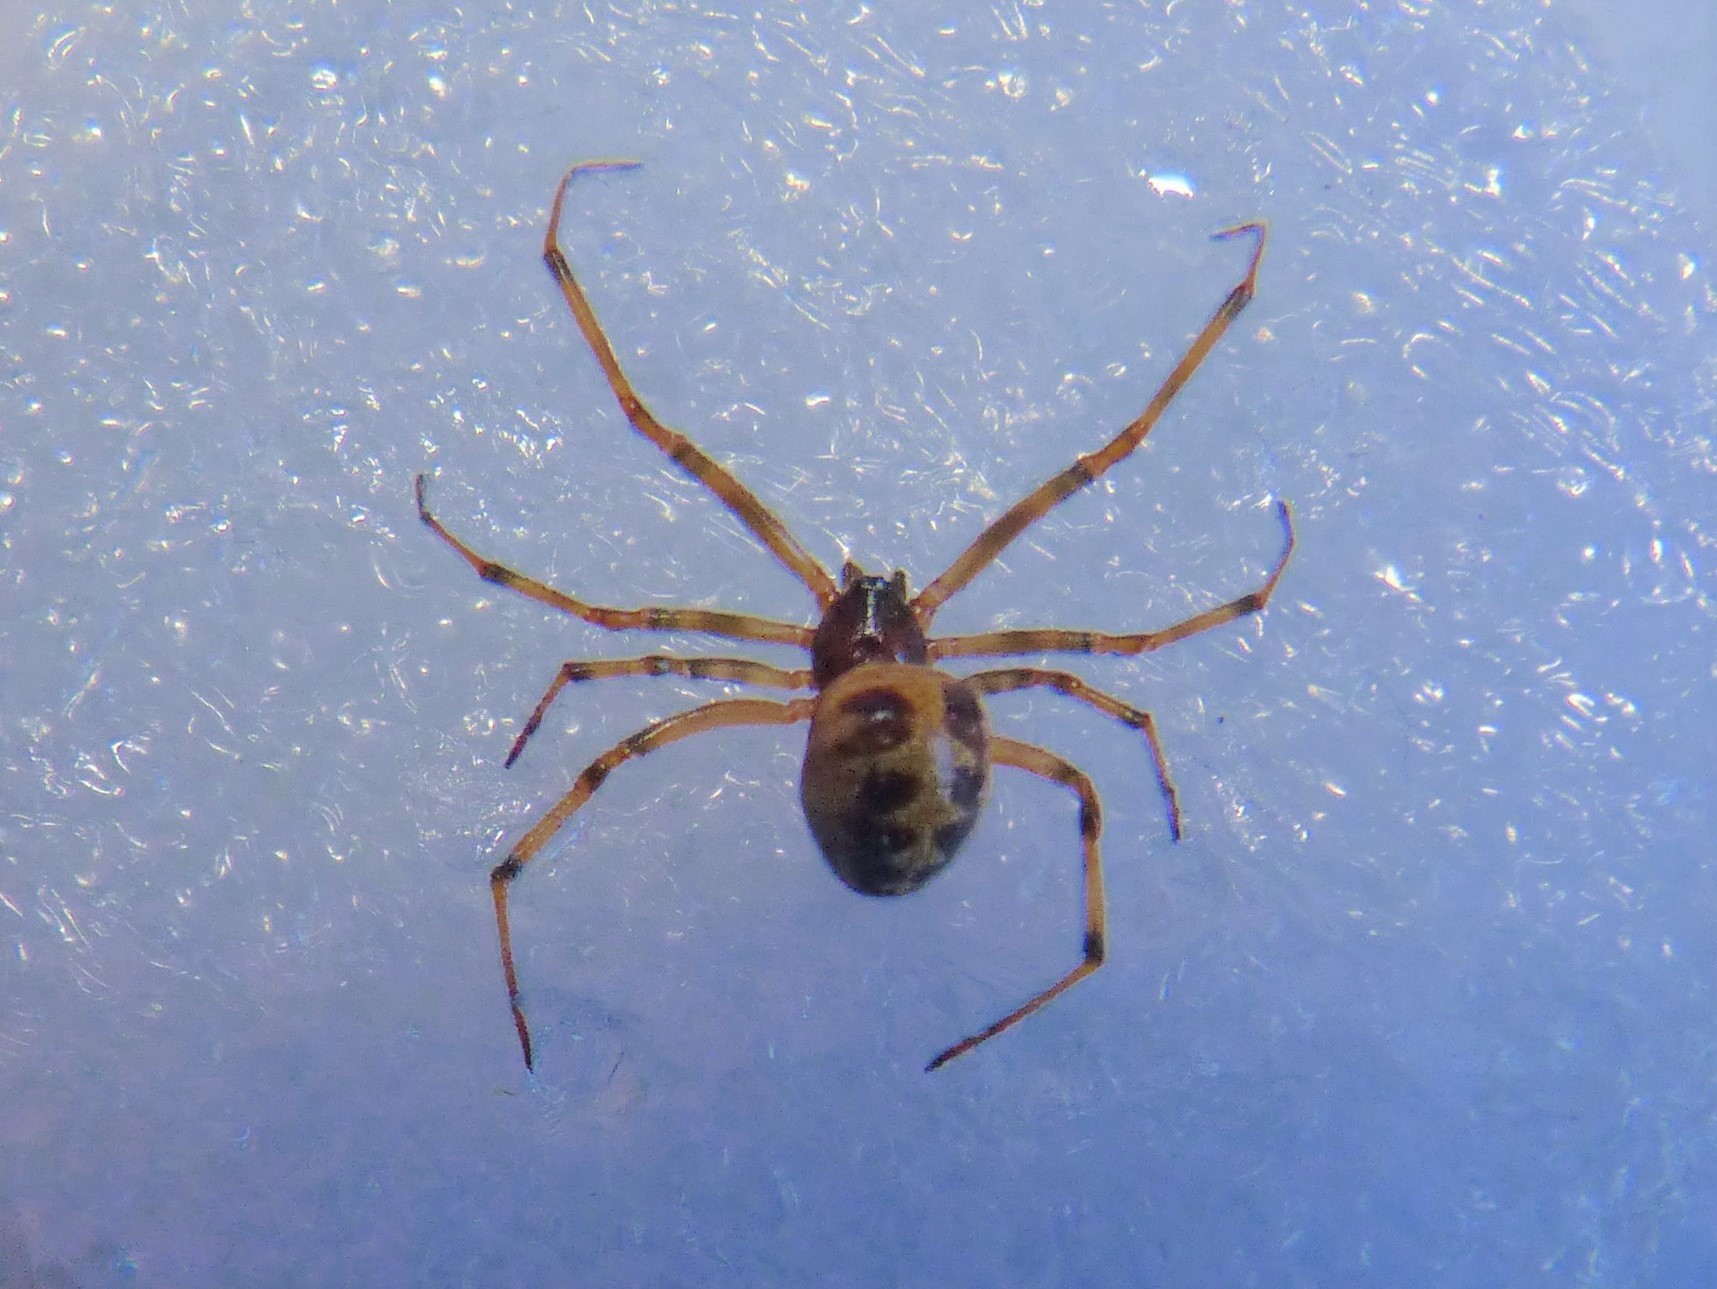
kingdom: Animalia
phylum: Arthropoda
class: Arachnida
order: Araneae
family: Theridiidae
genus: Steatoda
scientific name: Steatoda triangulosa
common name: Triangulate bud spider
